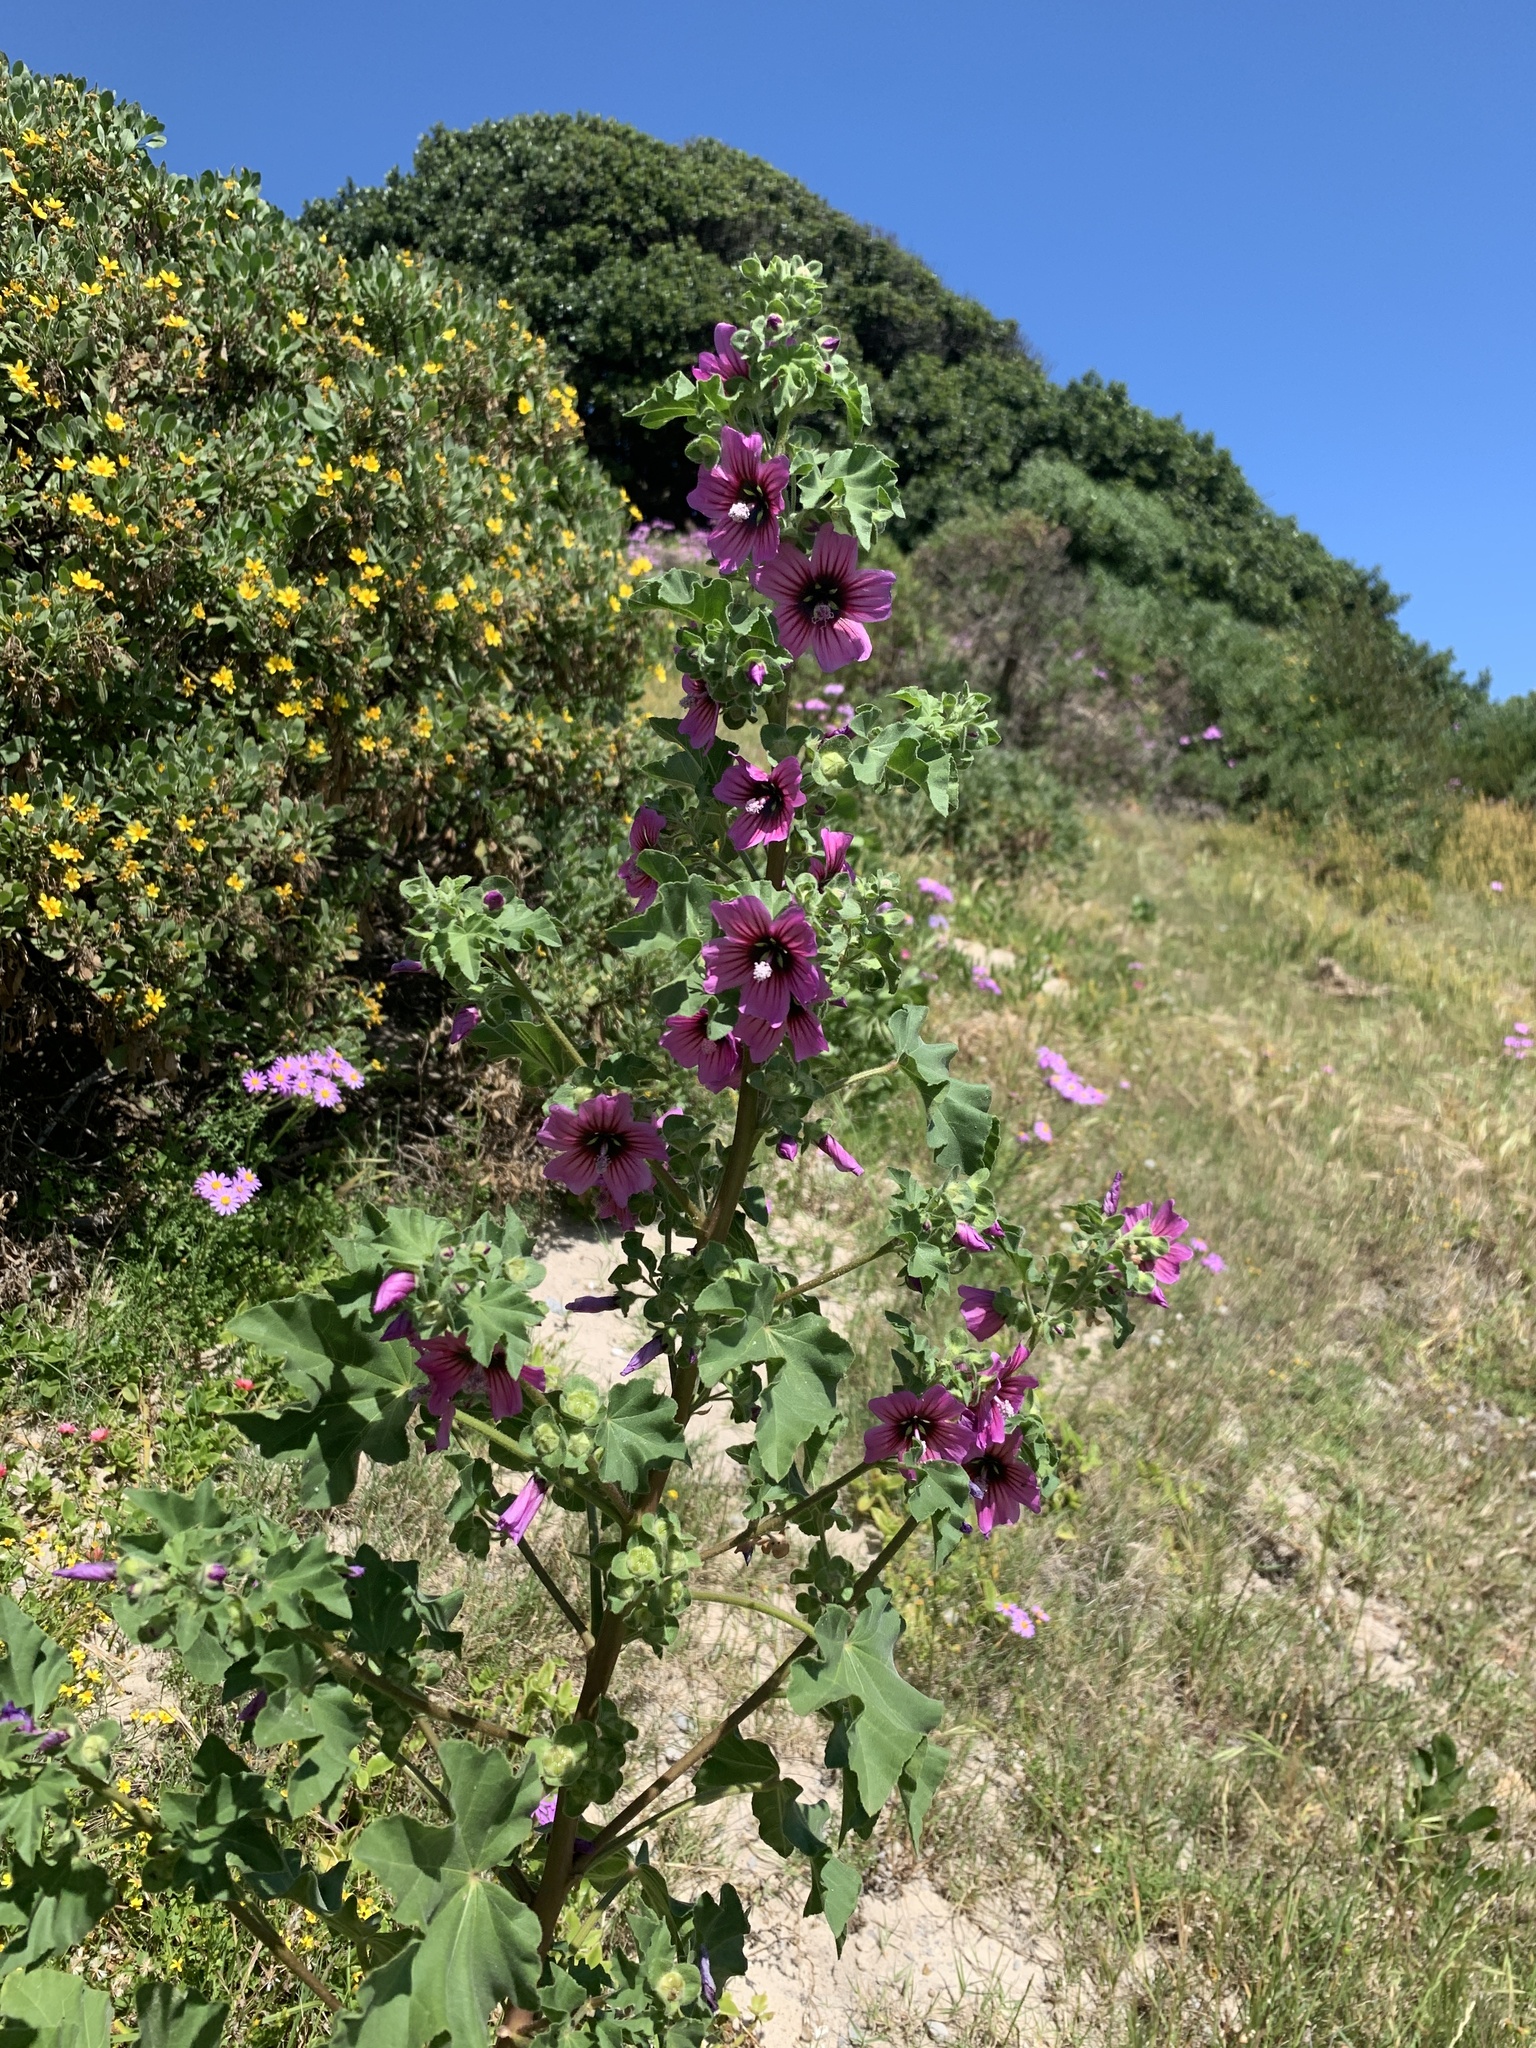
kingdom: Plantae
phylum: Tracheophyta
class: Magnoliopsida
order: Malvales
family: Malvaceae
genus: Malva
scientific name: Malva arborea
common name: Tree mallow
